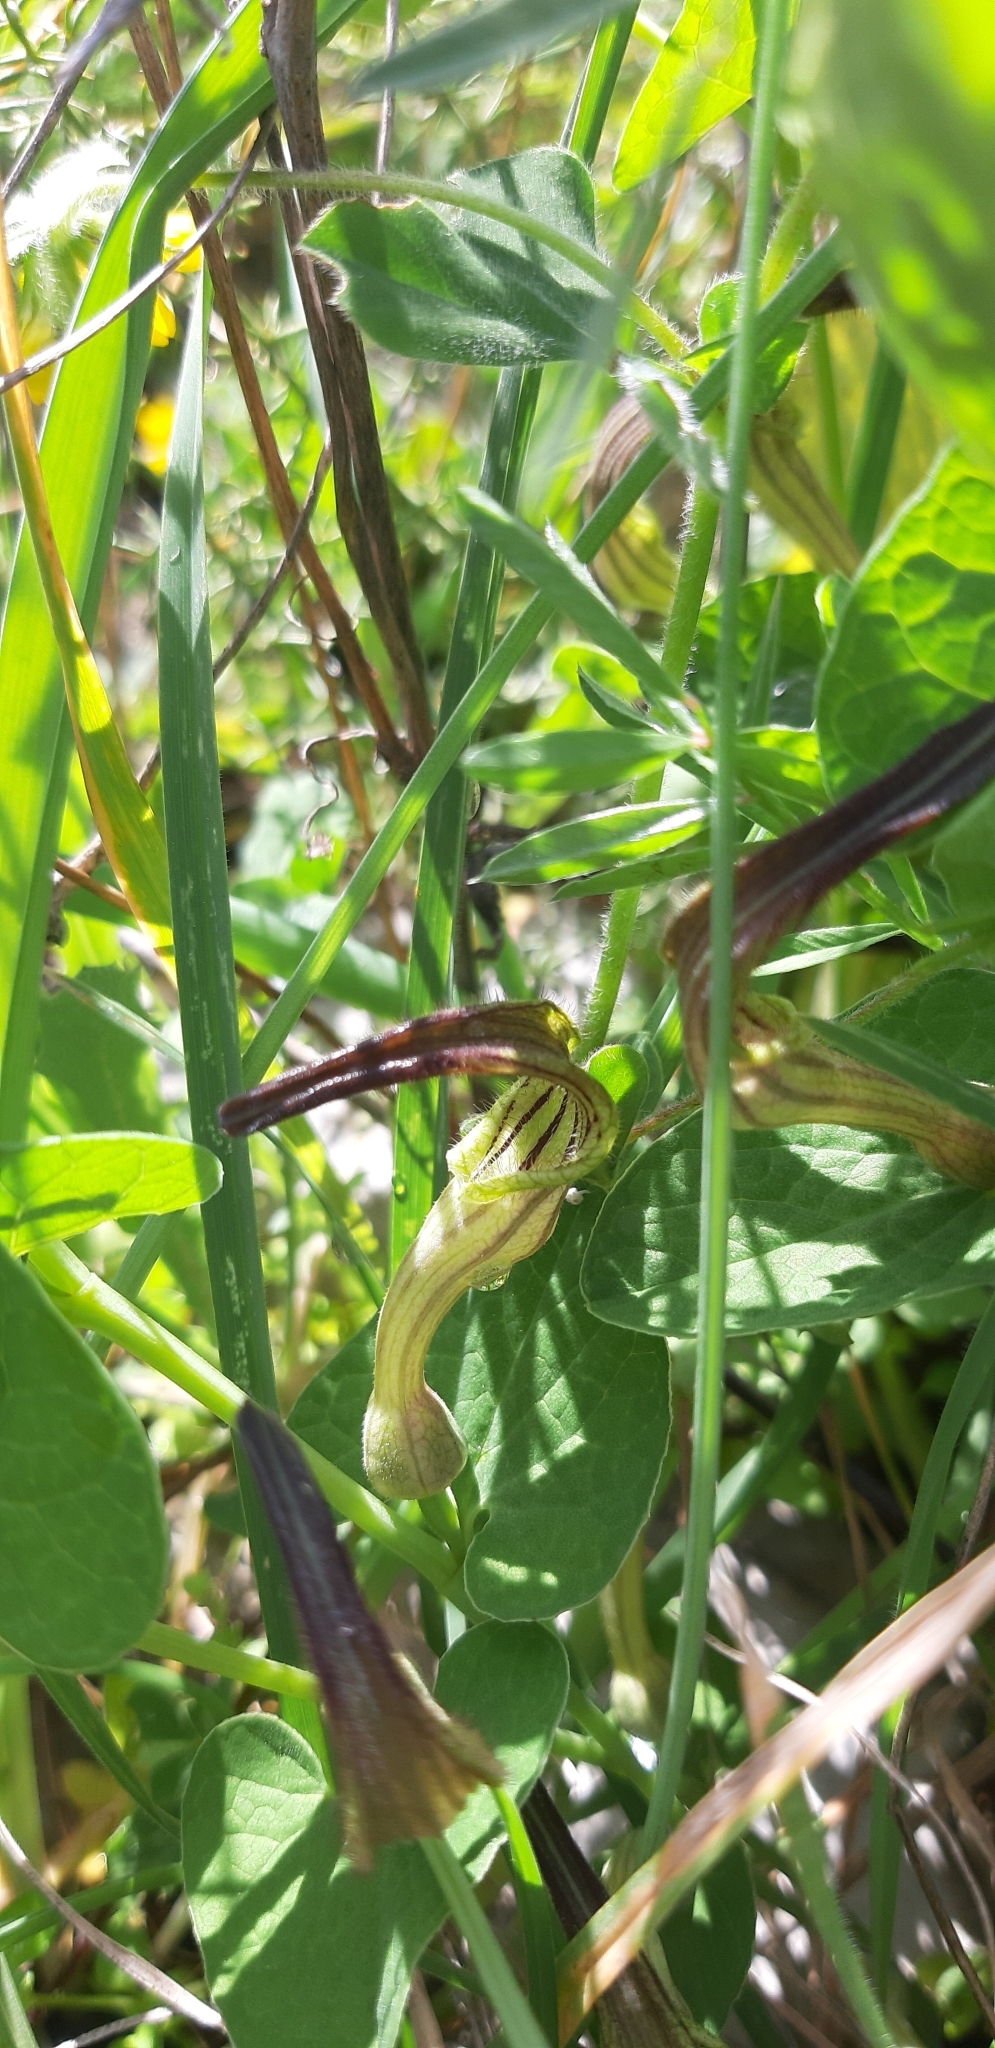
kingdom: Plantae
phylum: Tracheophyta
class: Magnoliopsida
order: Piperales
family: Aristolochiaceae
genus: Aristolochia
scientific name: Aristolochia clusii
